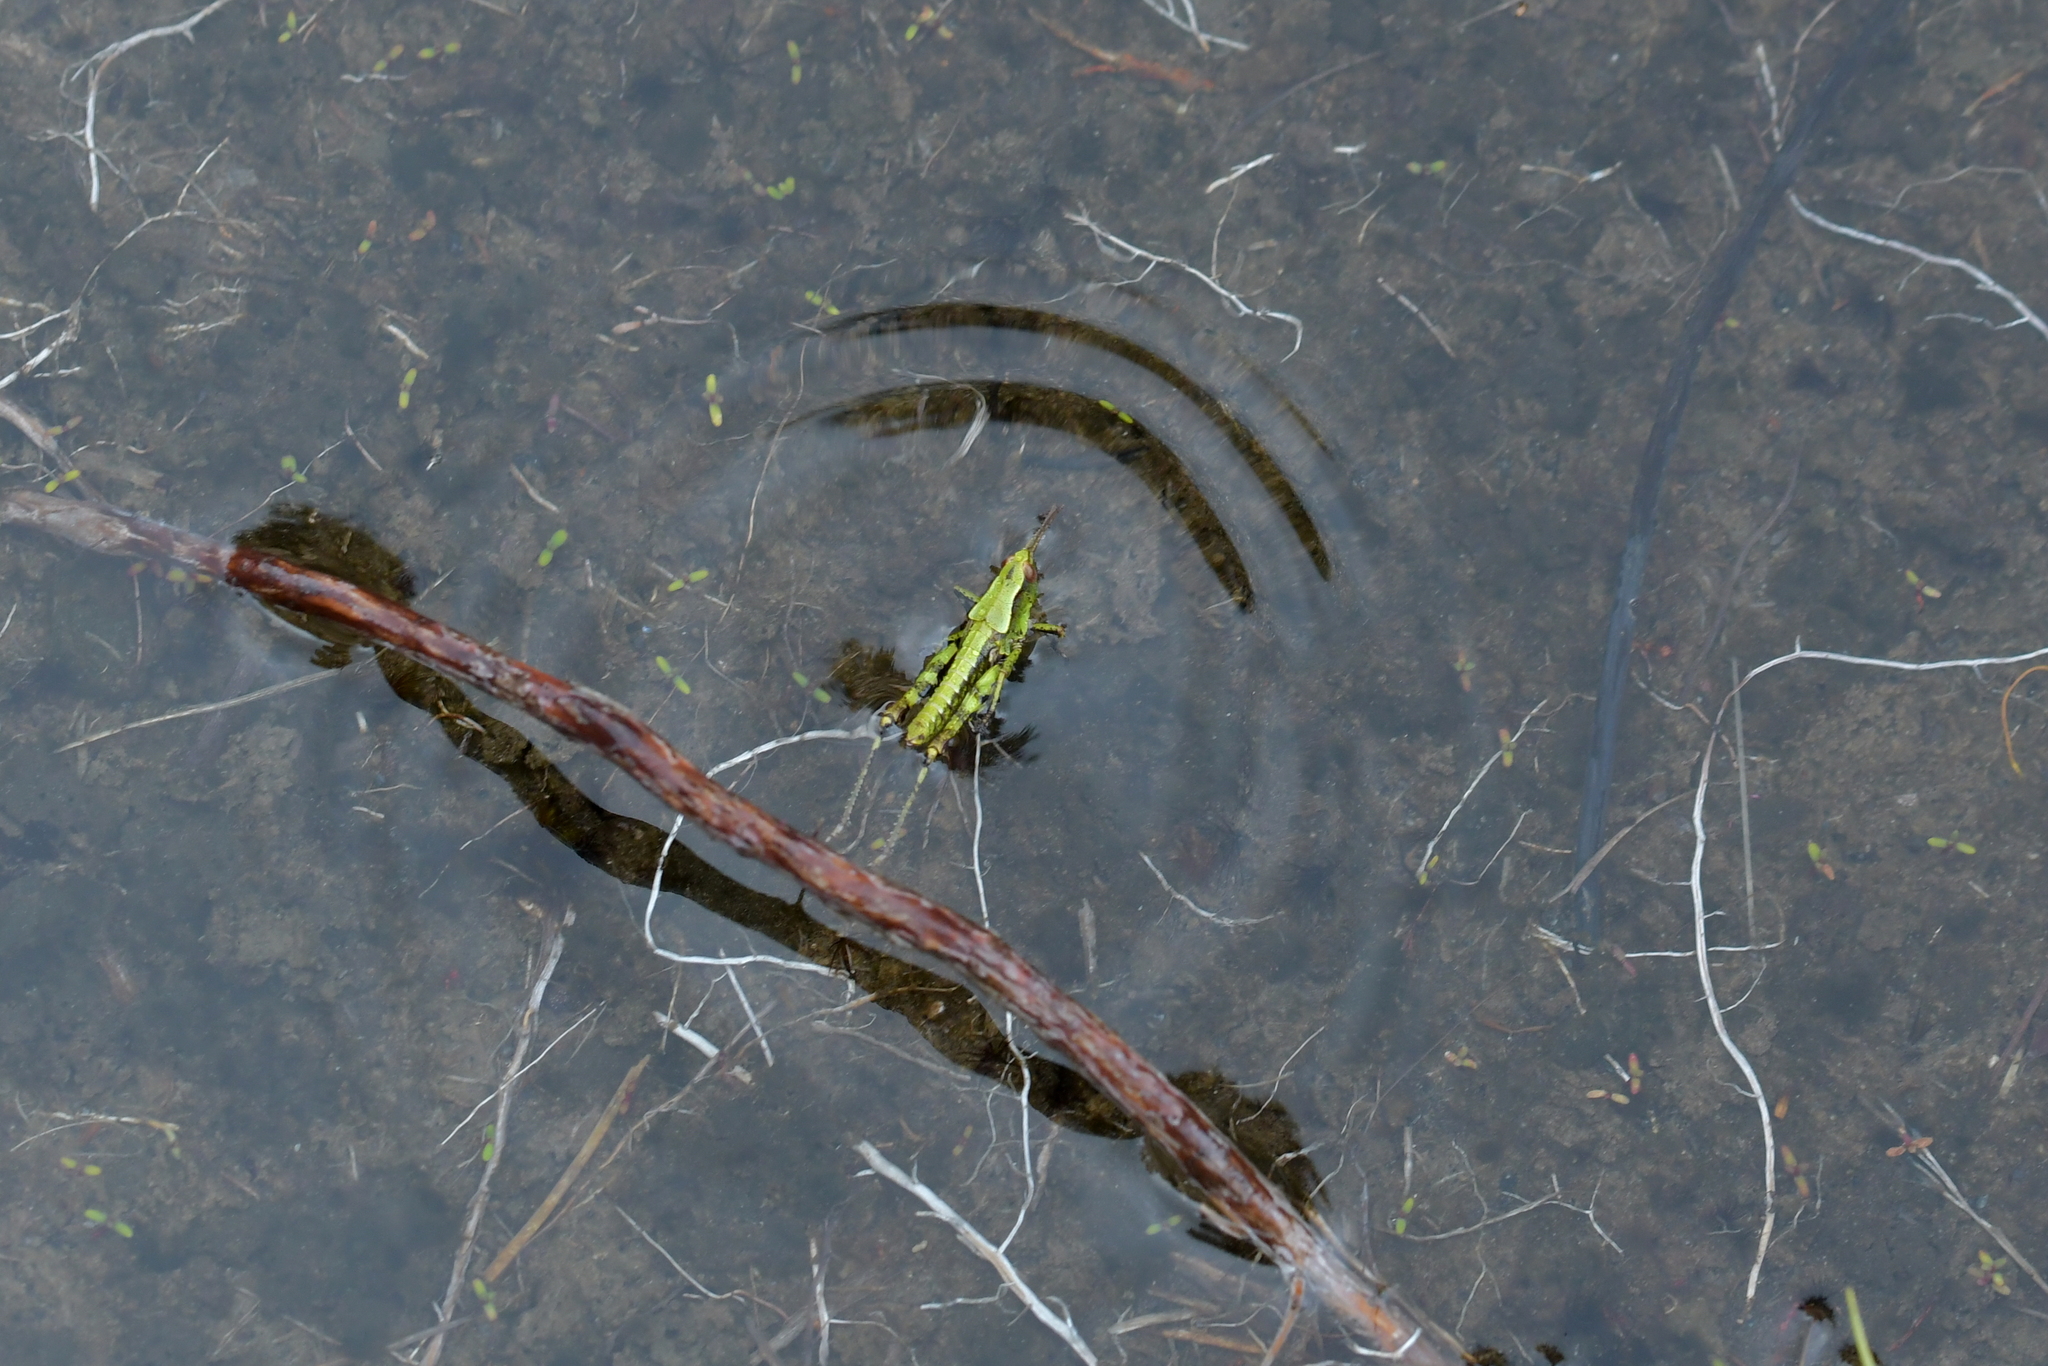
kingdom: Animalia
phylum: Arthropoda
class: Insecta
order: Orthoptera
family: Acrididae
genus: Sigaus
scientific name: Sigaus piliferus
